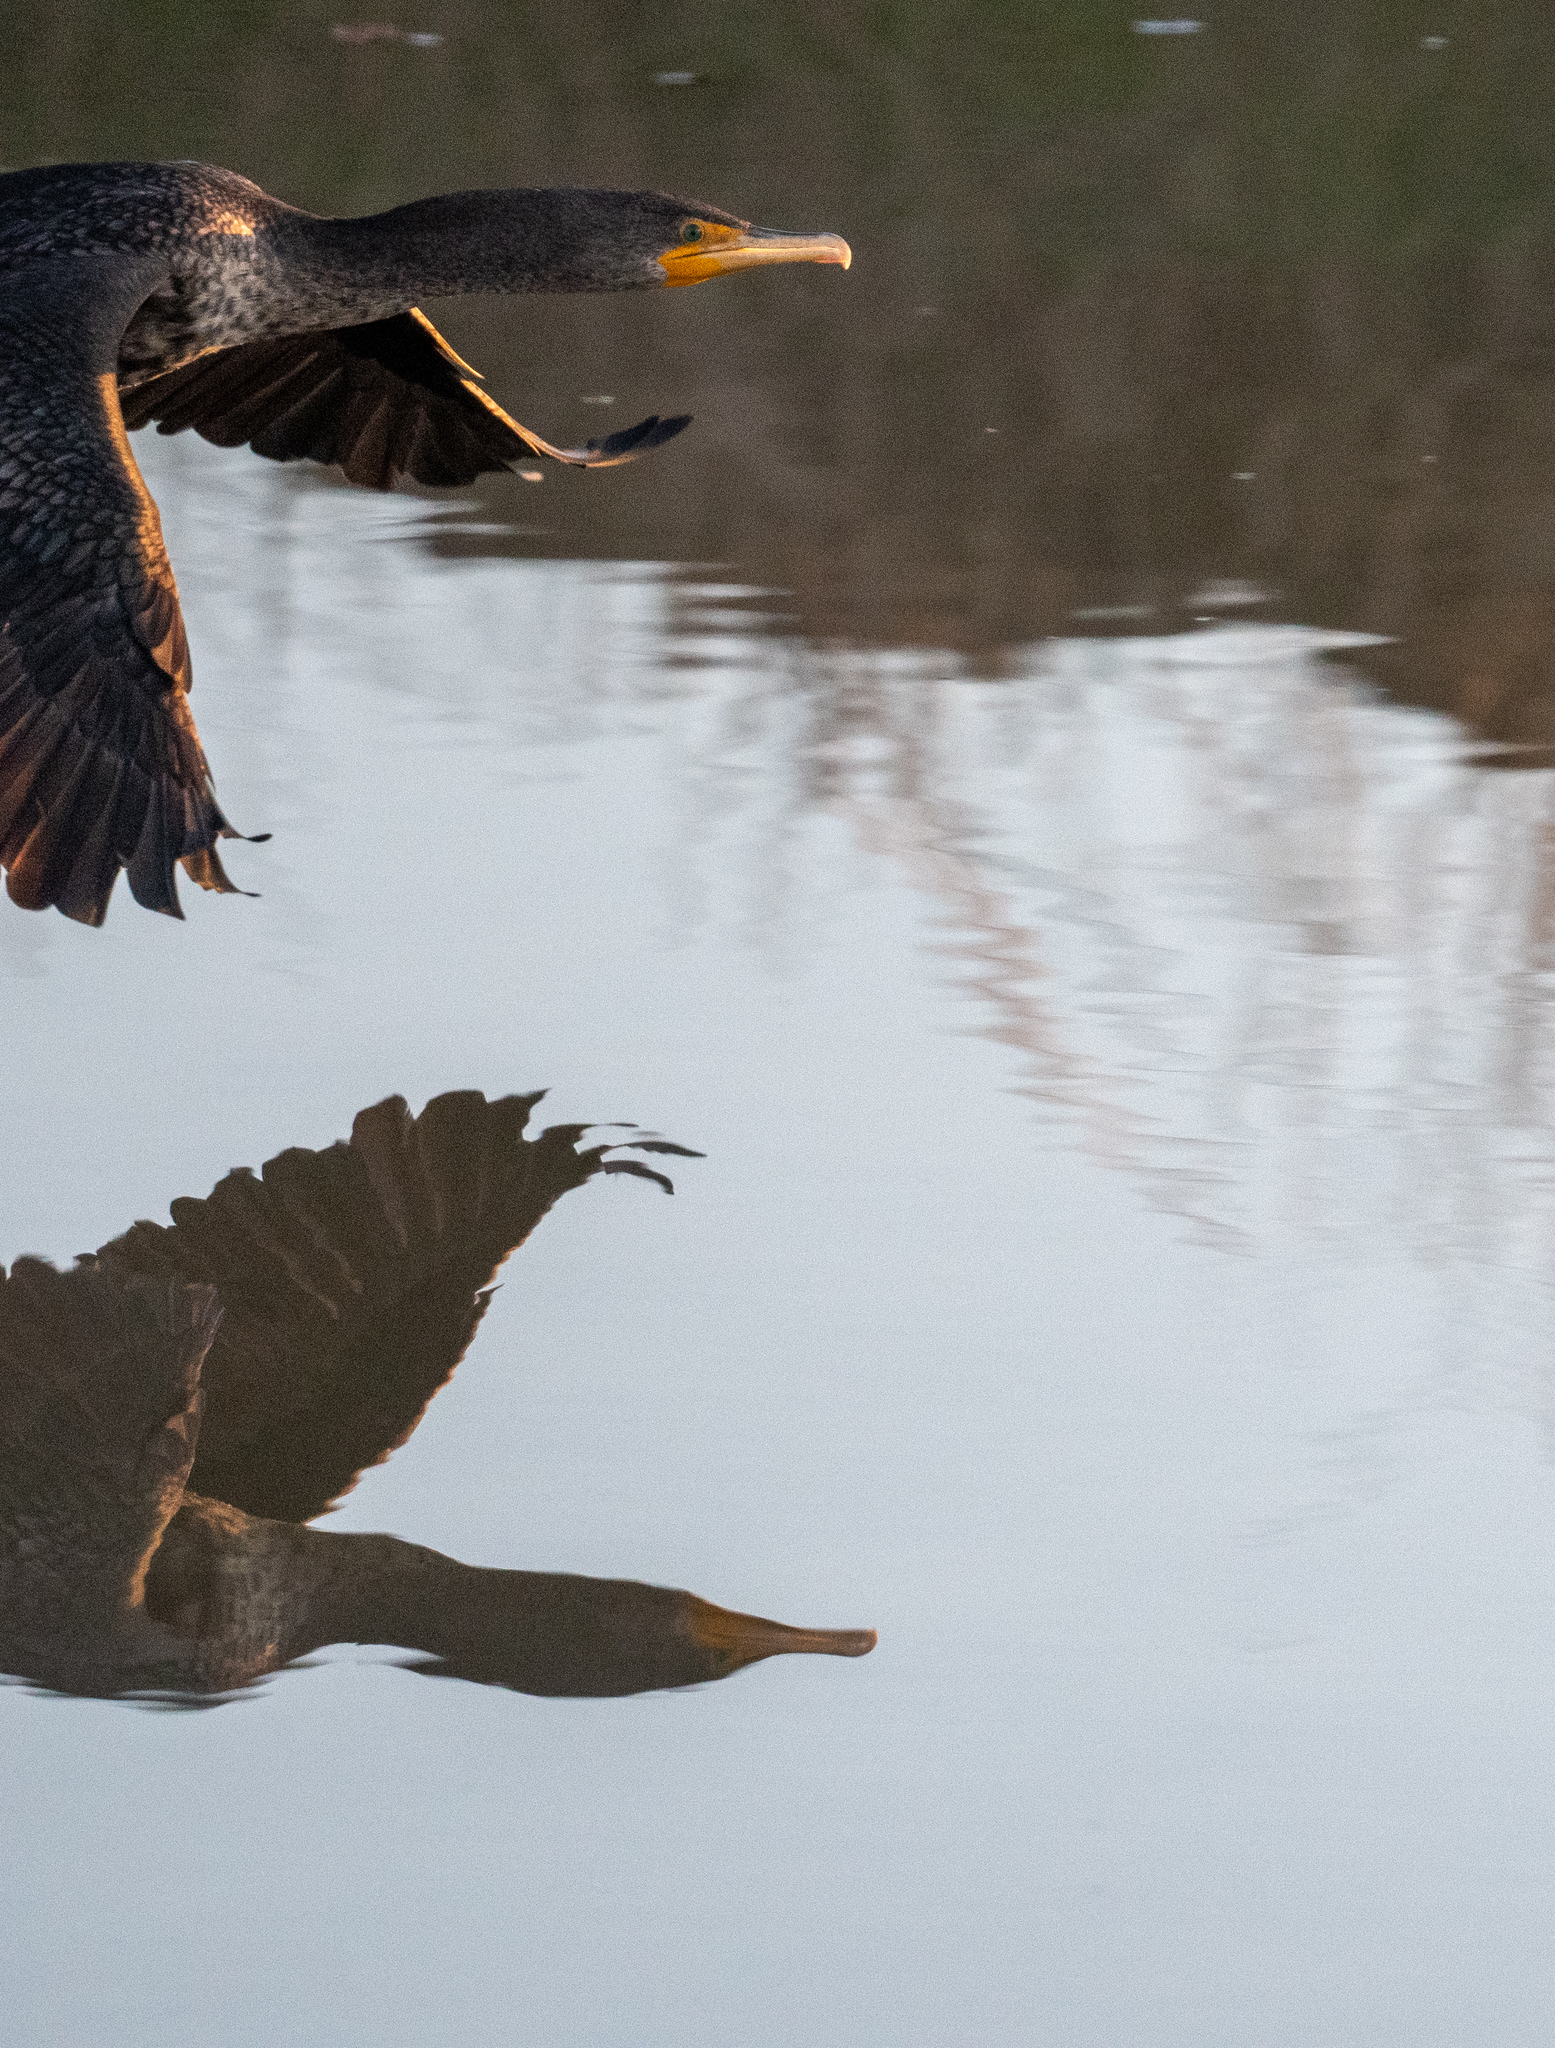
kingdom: Animalia
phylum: Chordata
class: Aves
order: Suliformes
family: Phalacrocoracidae
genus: Phalacrocorax
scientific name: Phalacrocorax auritus
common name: Double-crested cormorant
